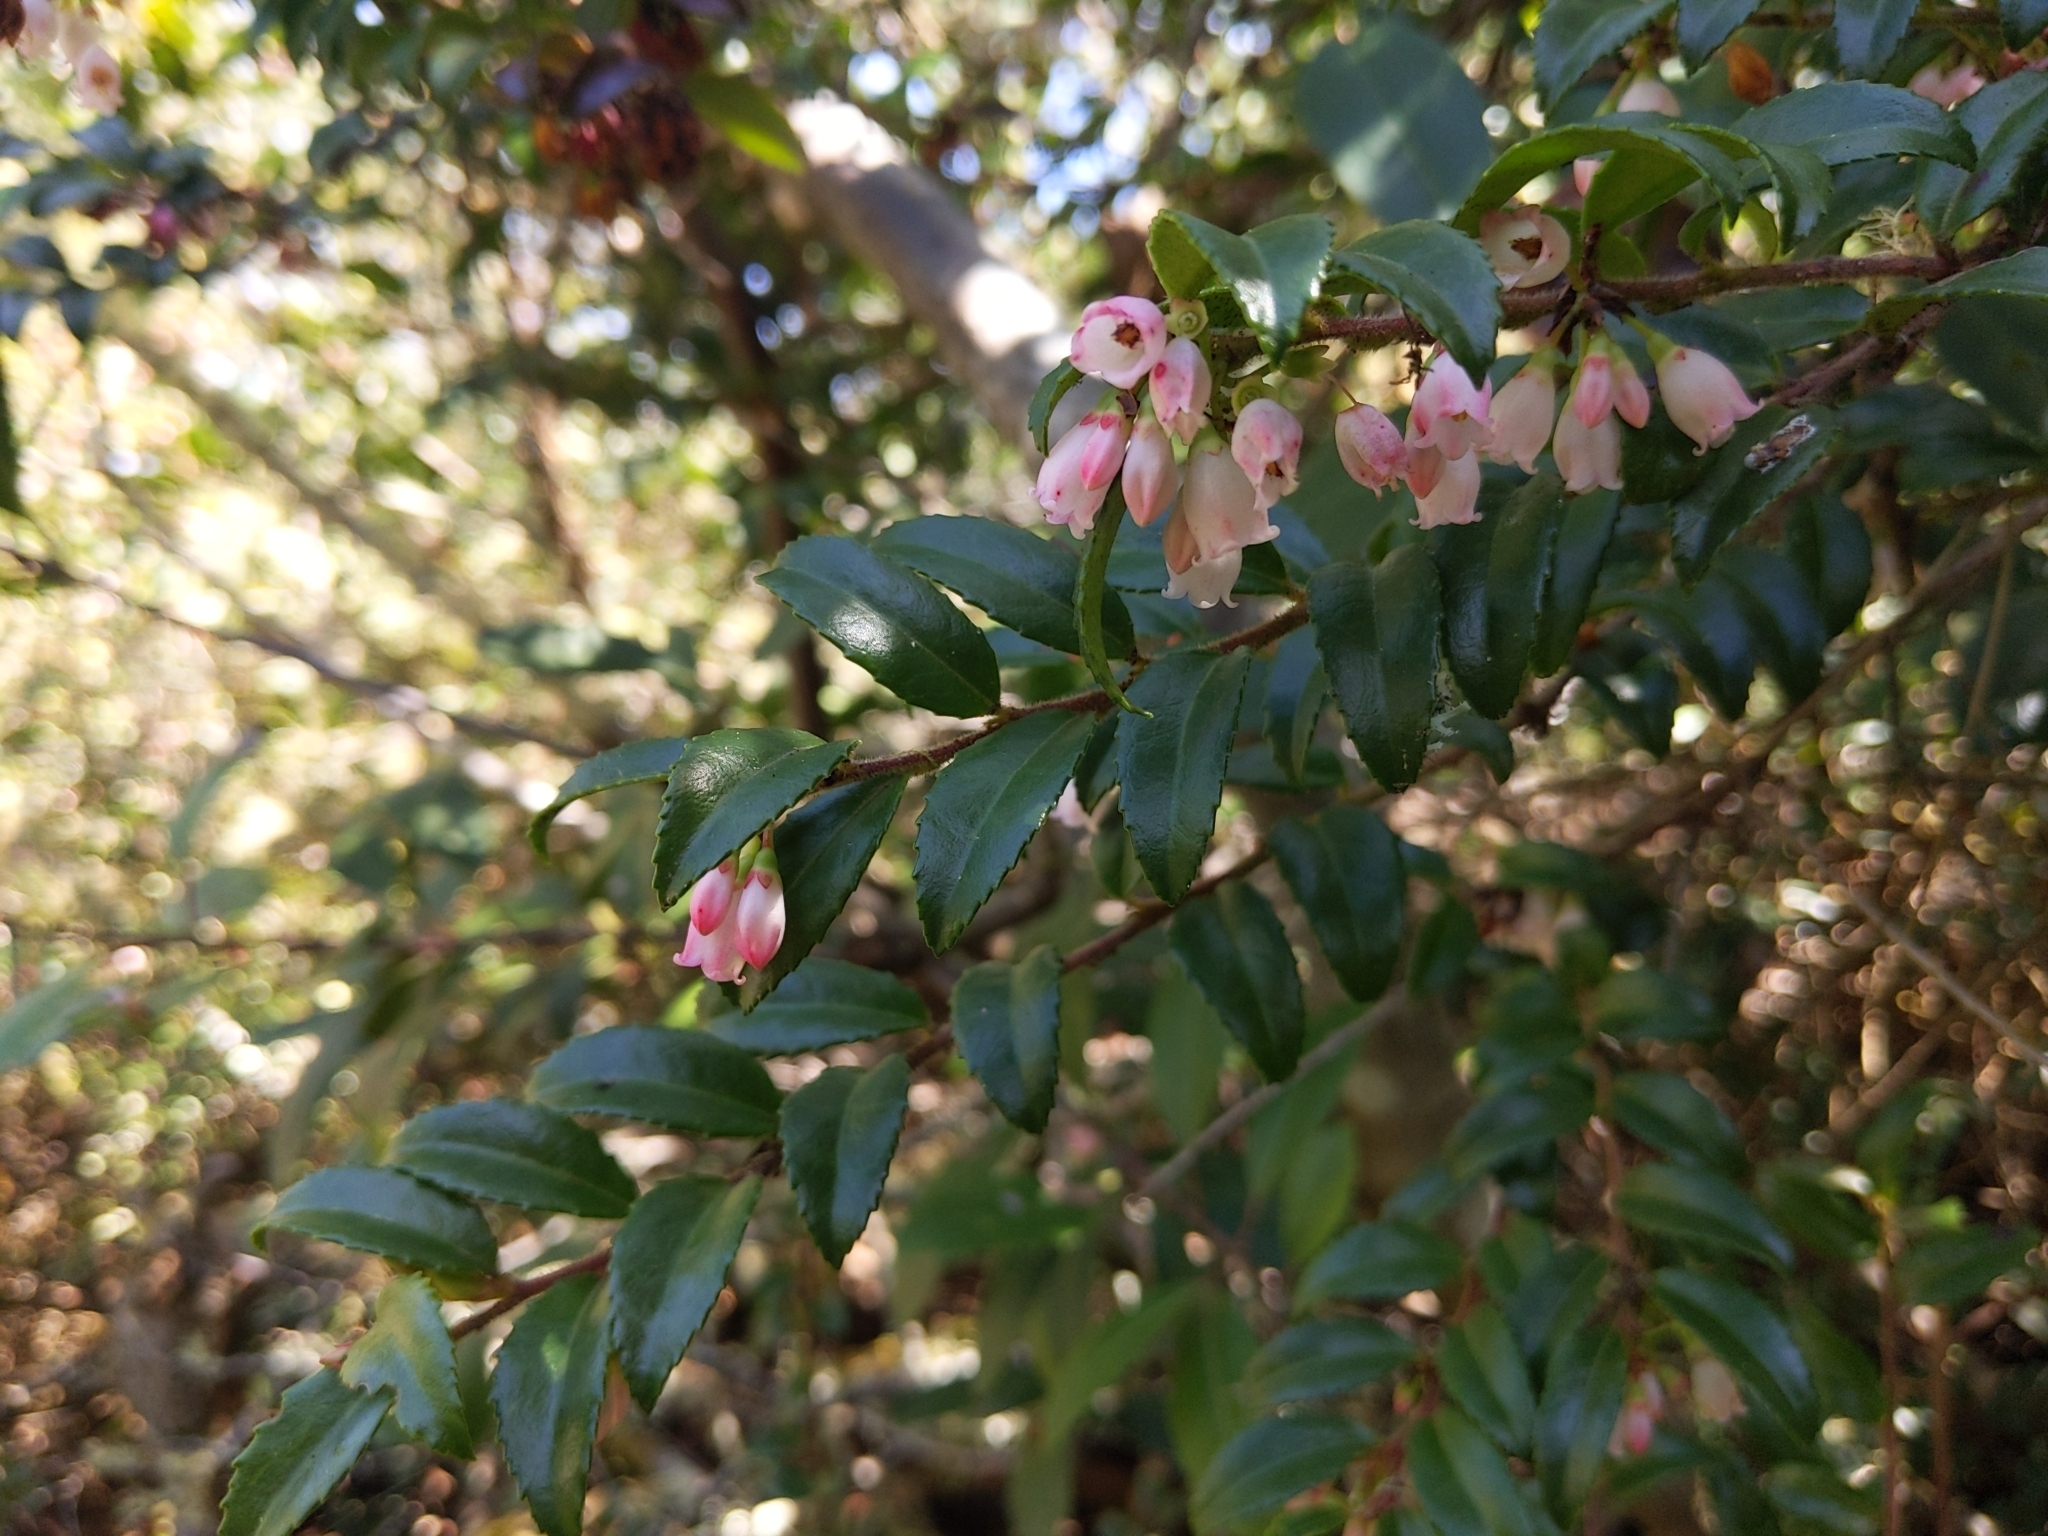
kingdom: Plantae
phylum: Tracheophyta
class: Magnoliopsida
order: Ericales
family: Ericaceae
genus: Vaccinium
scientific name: Vaccinium ovatum
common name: California-huckleberry
